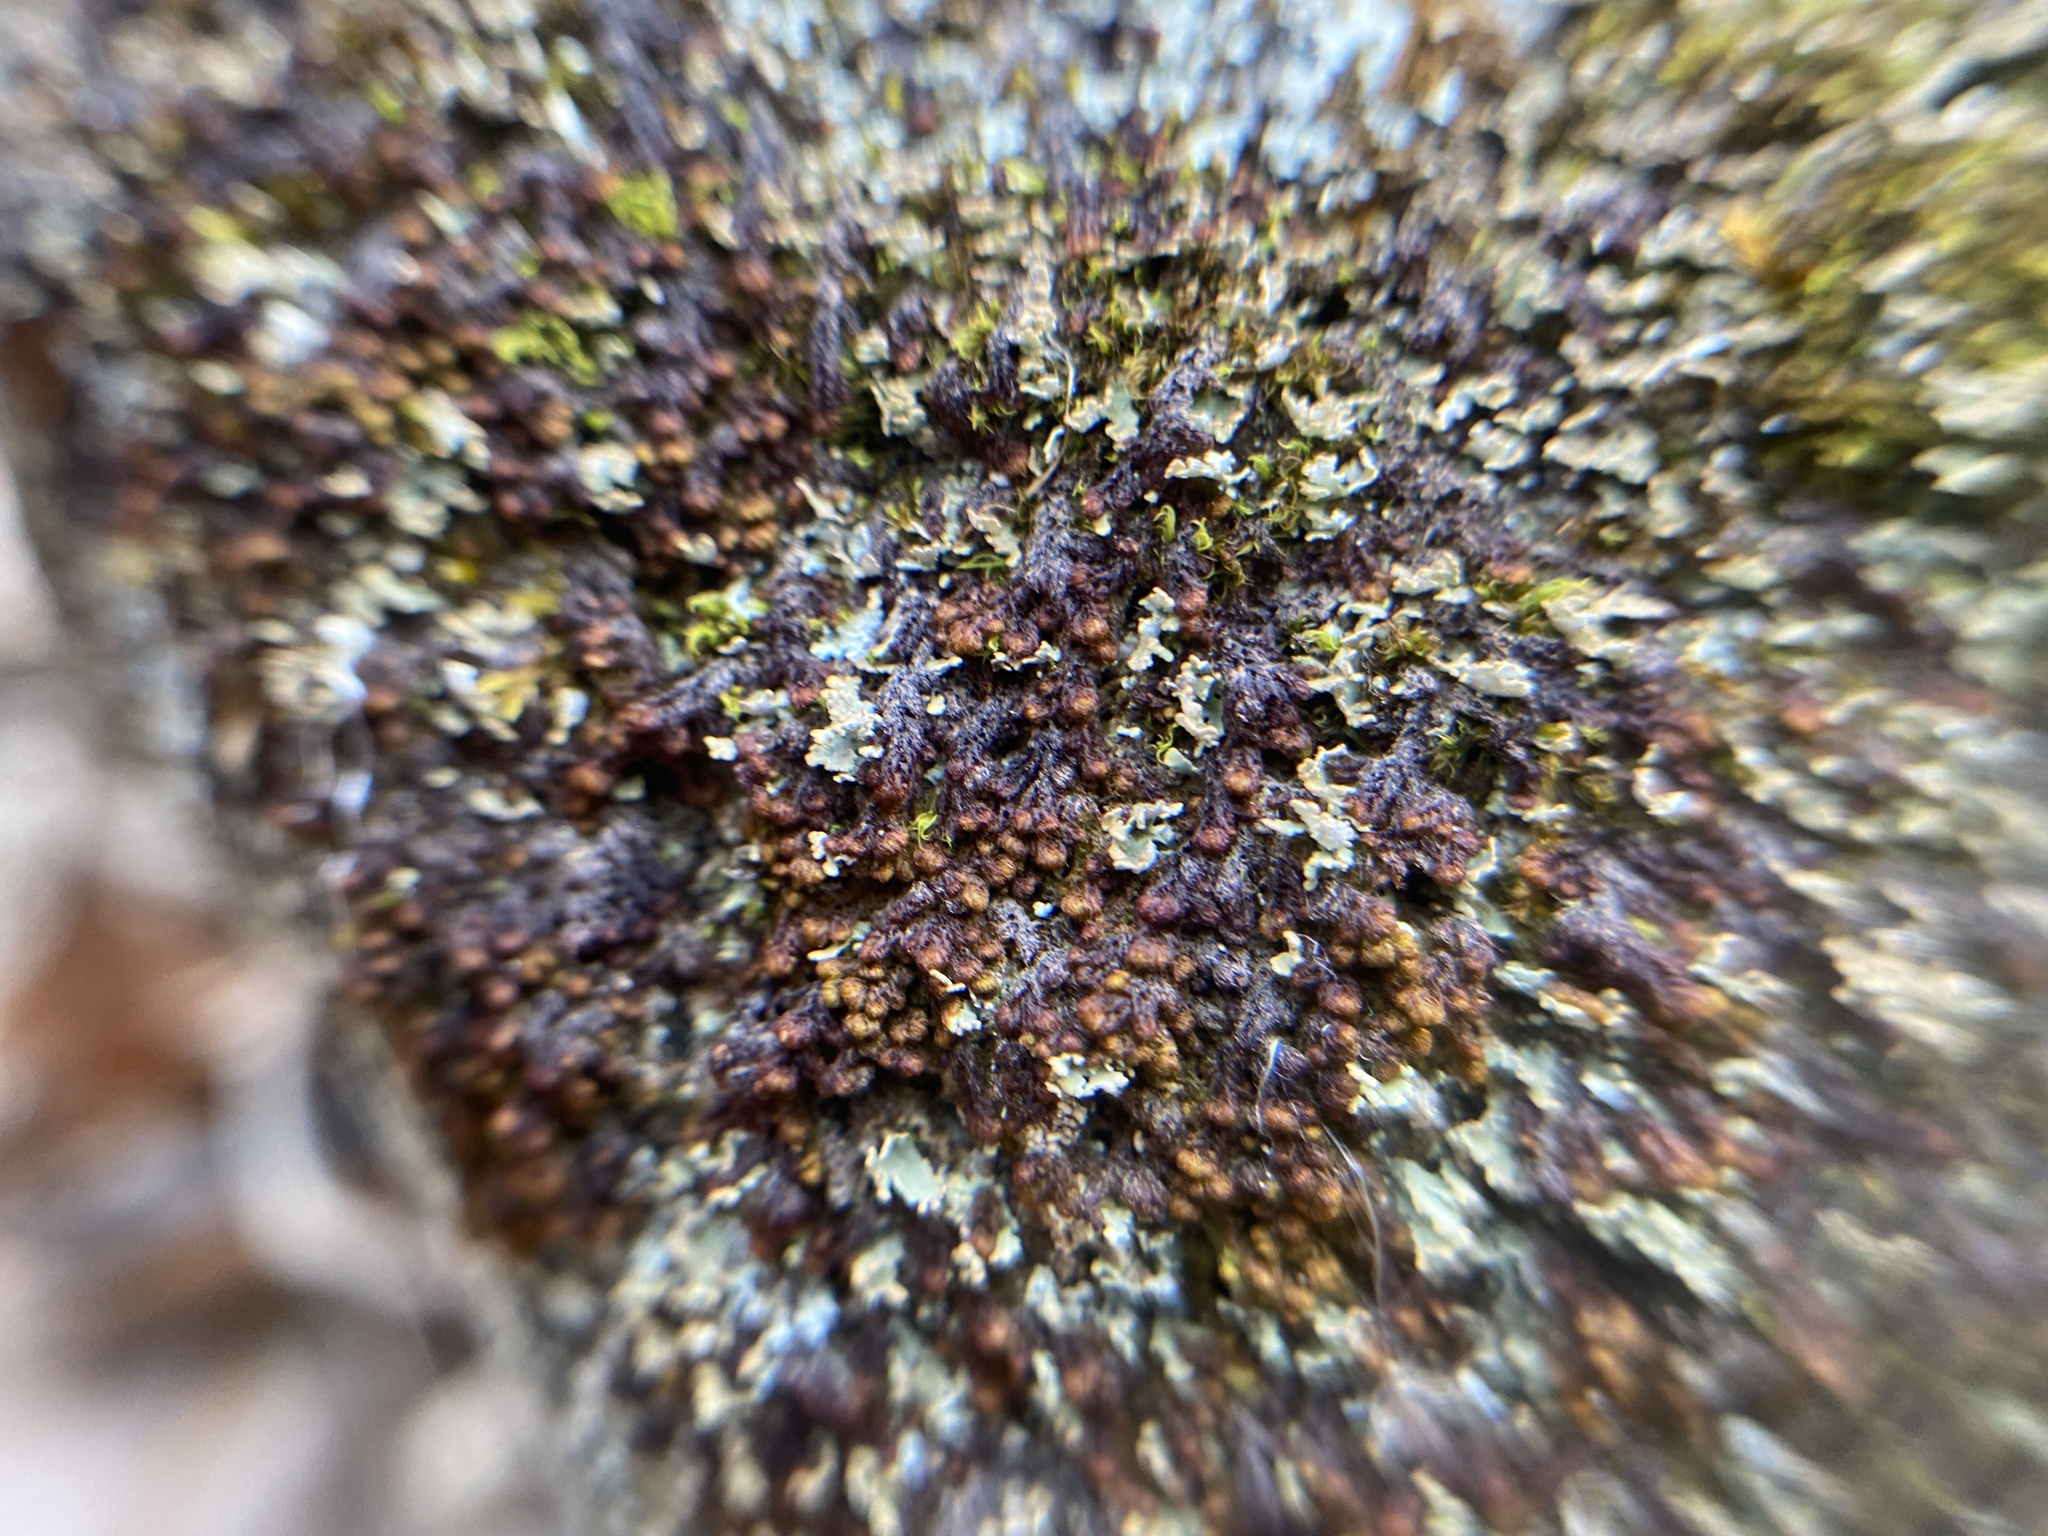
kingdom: Plantae
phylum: Marchantiophyta
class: Jungermanniopsida
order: Ptilidiales
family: Ptilidiaceae
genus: Ptilidium
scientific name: Ptilidium pulcherrimum
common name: Tree fringewort
